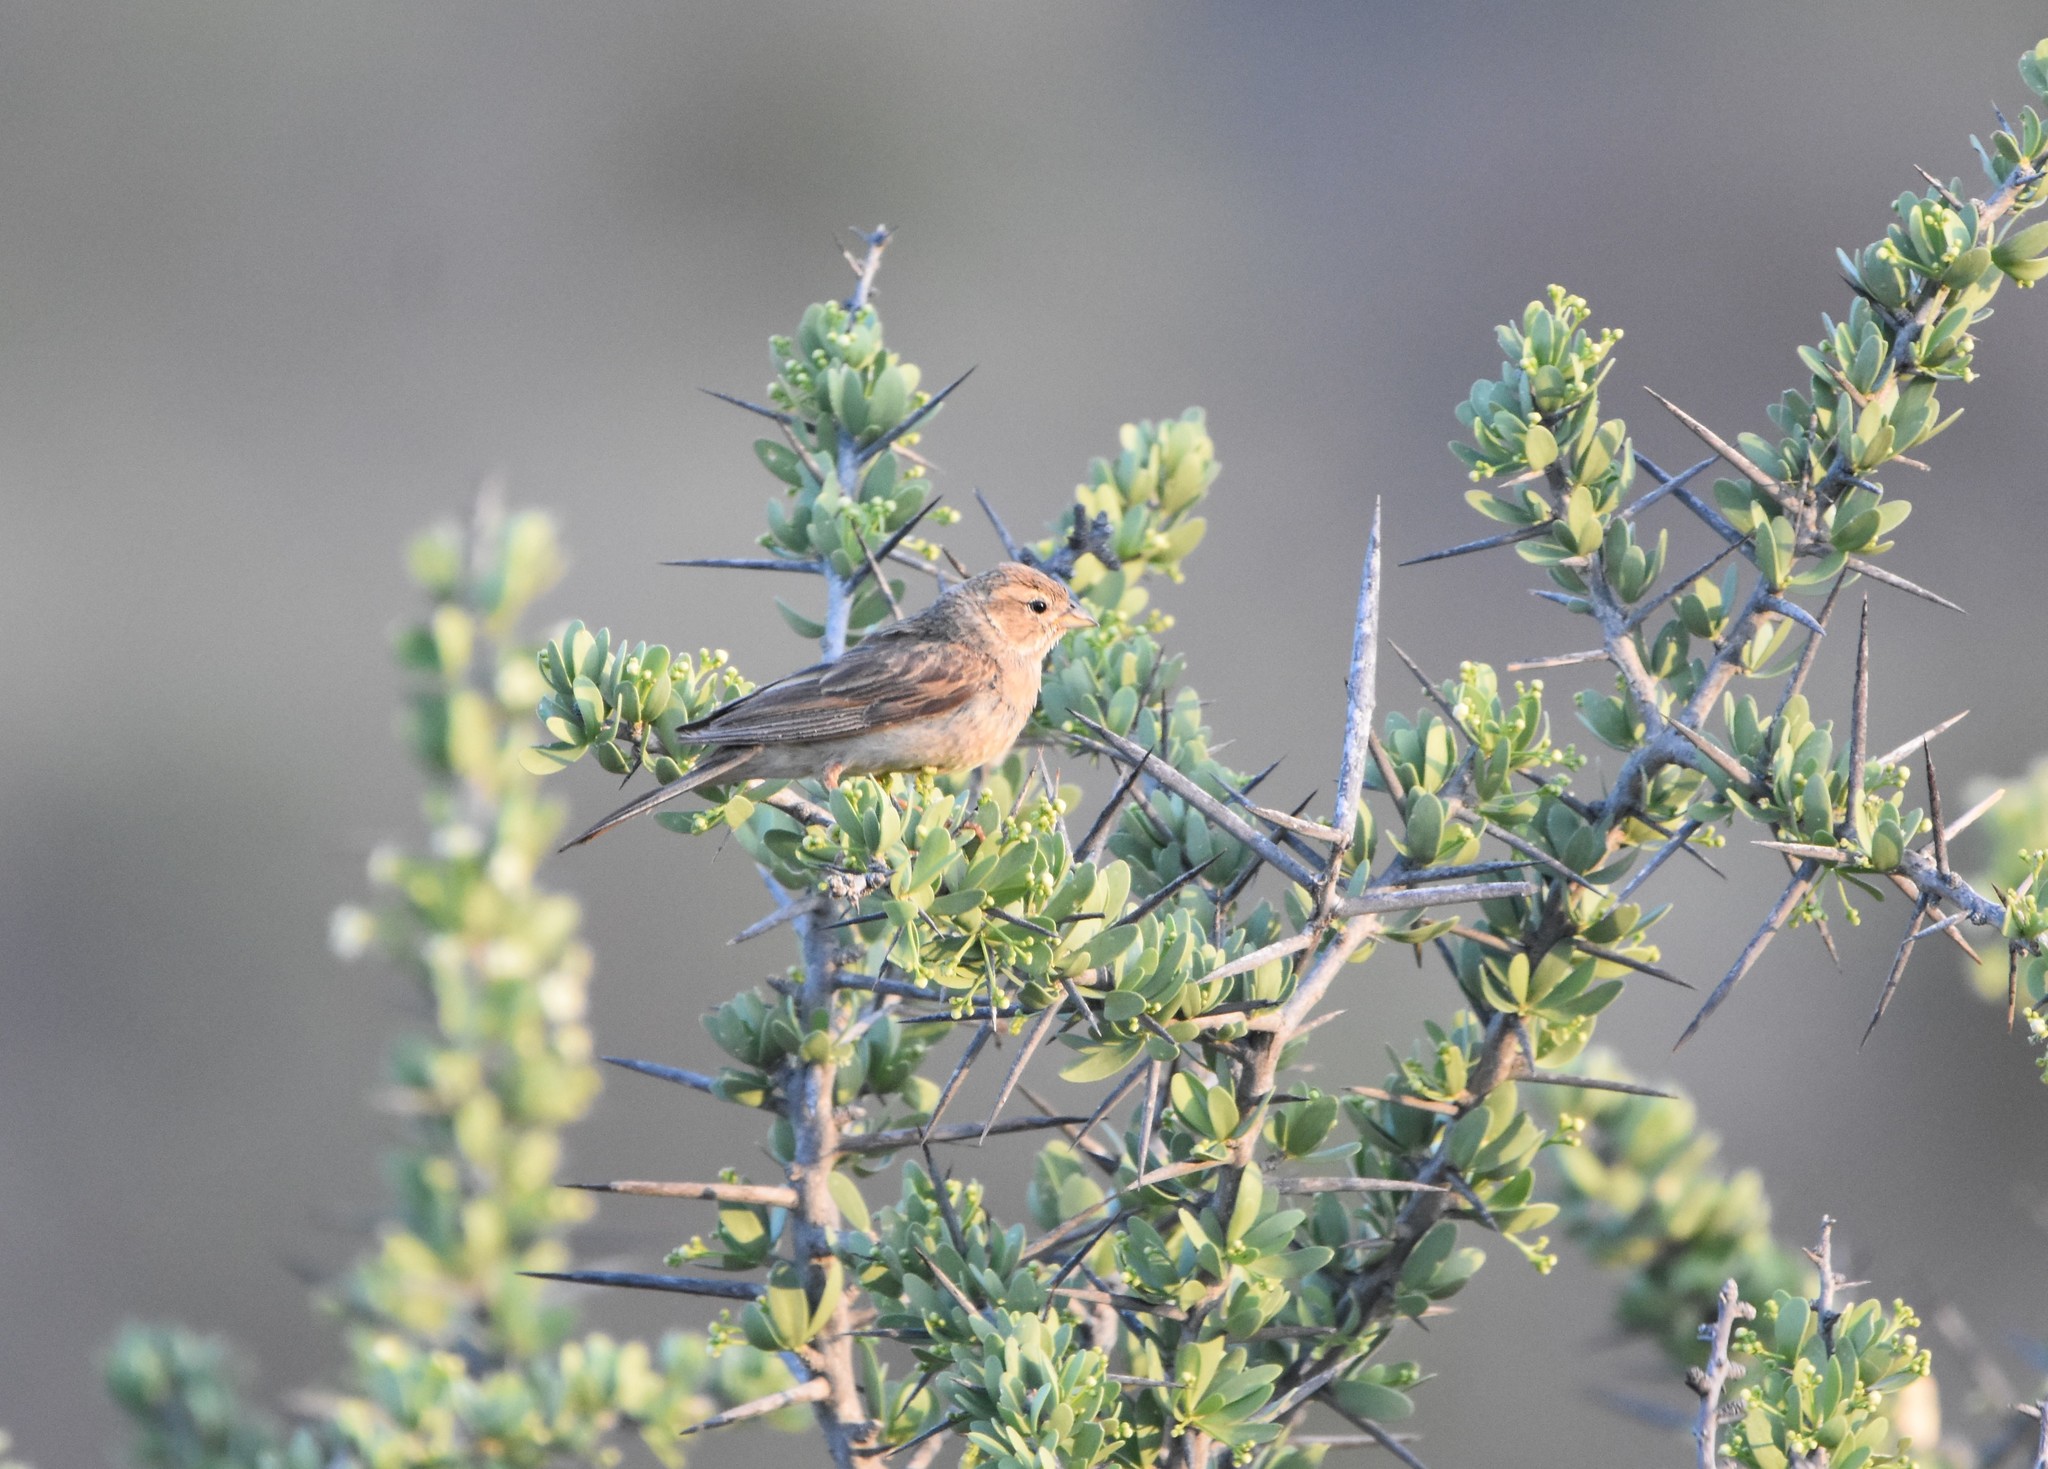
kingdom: Animalia
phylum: Chordata
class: Aves
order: Passeriformes
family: Emberizidae
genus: Emberiza
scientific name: Emberiza impetuani
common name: Lark-like bunting
